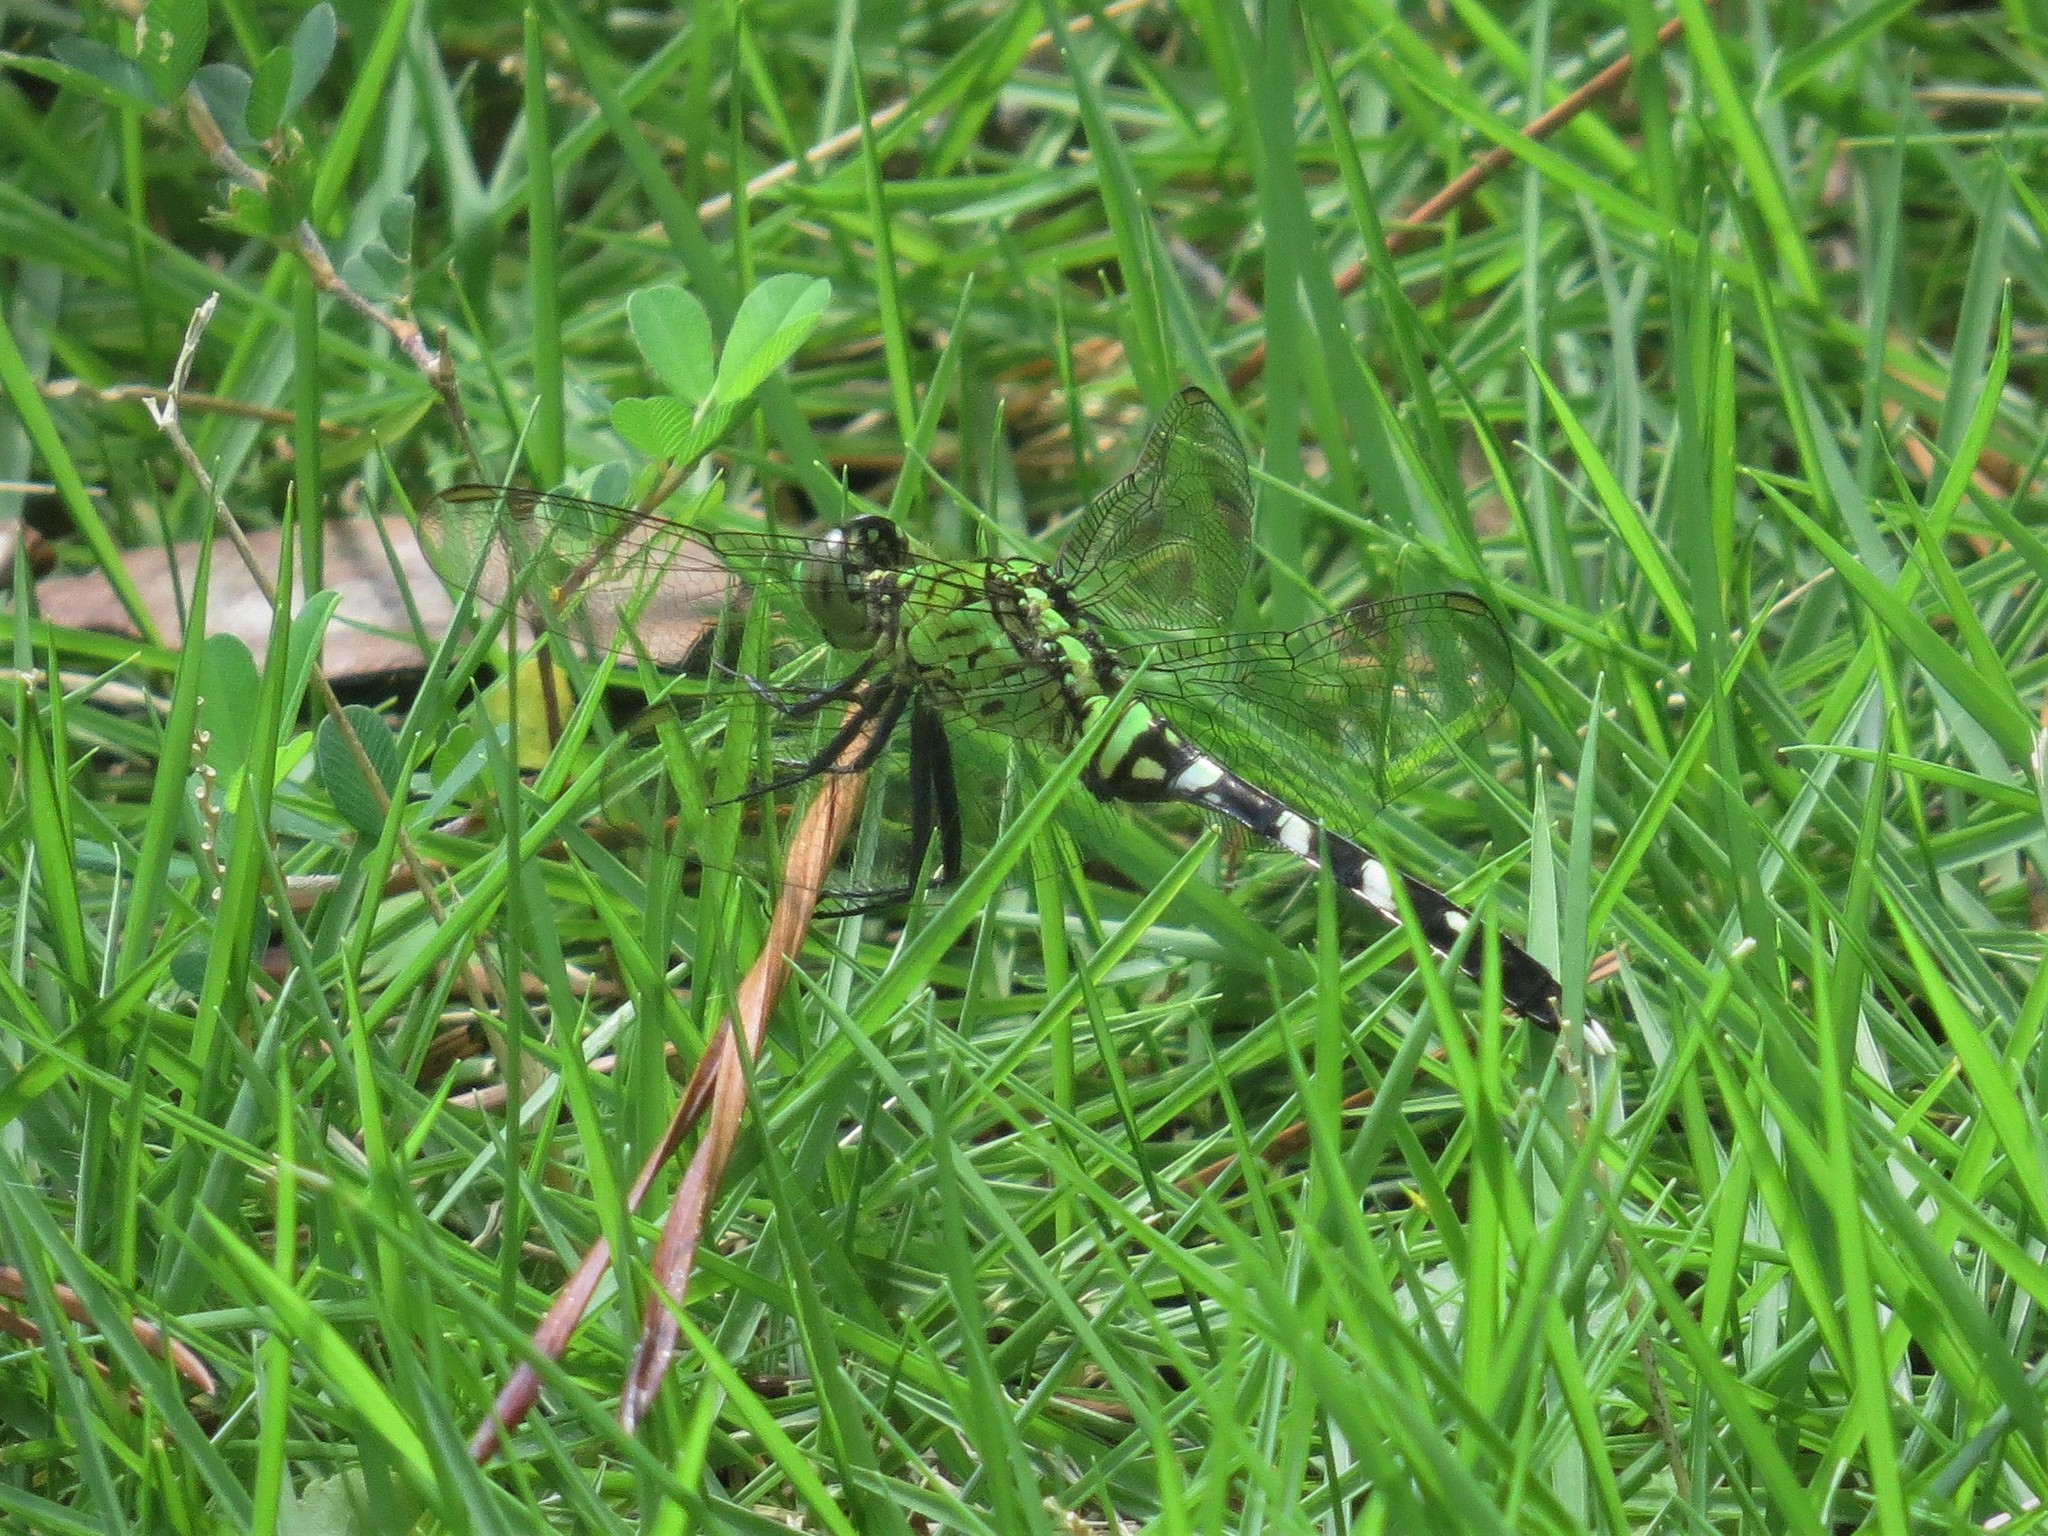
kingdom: Animalia
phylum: Arthropoda
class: Insecta
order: Odonata
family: Libellulidae
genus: Erythemis
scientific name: Erythemis simplicicollis
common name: Eastern pondhawk
